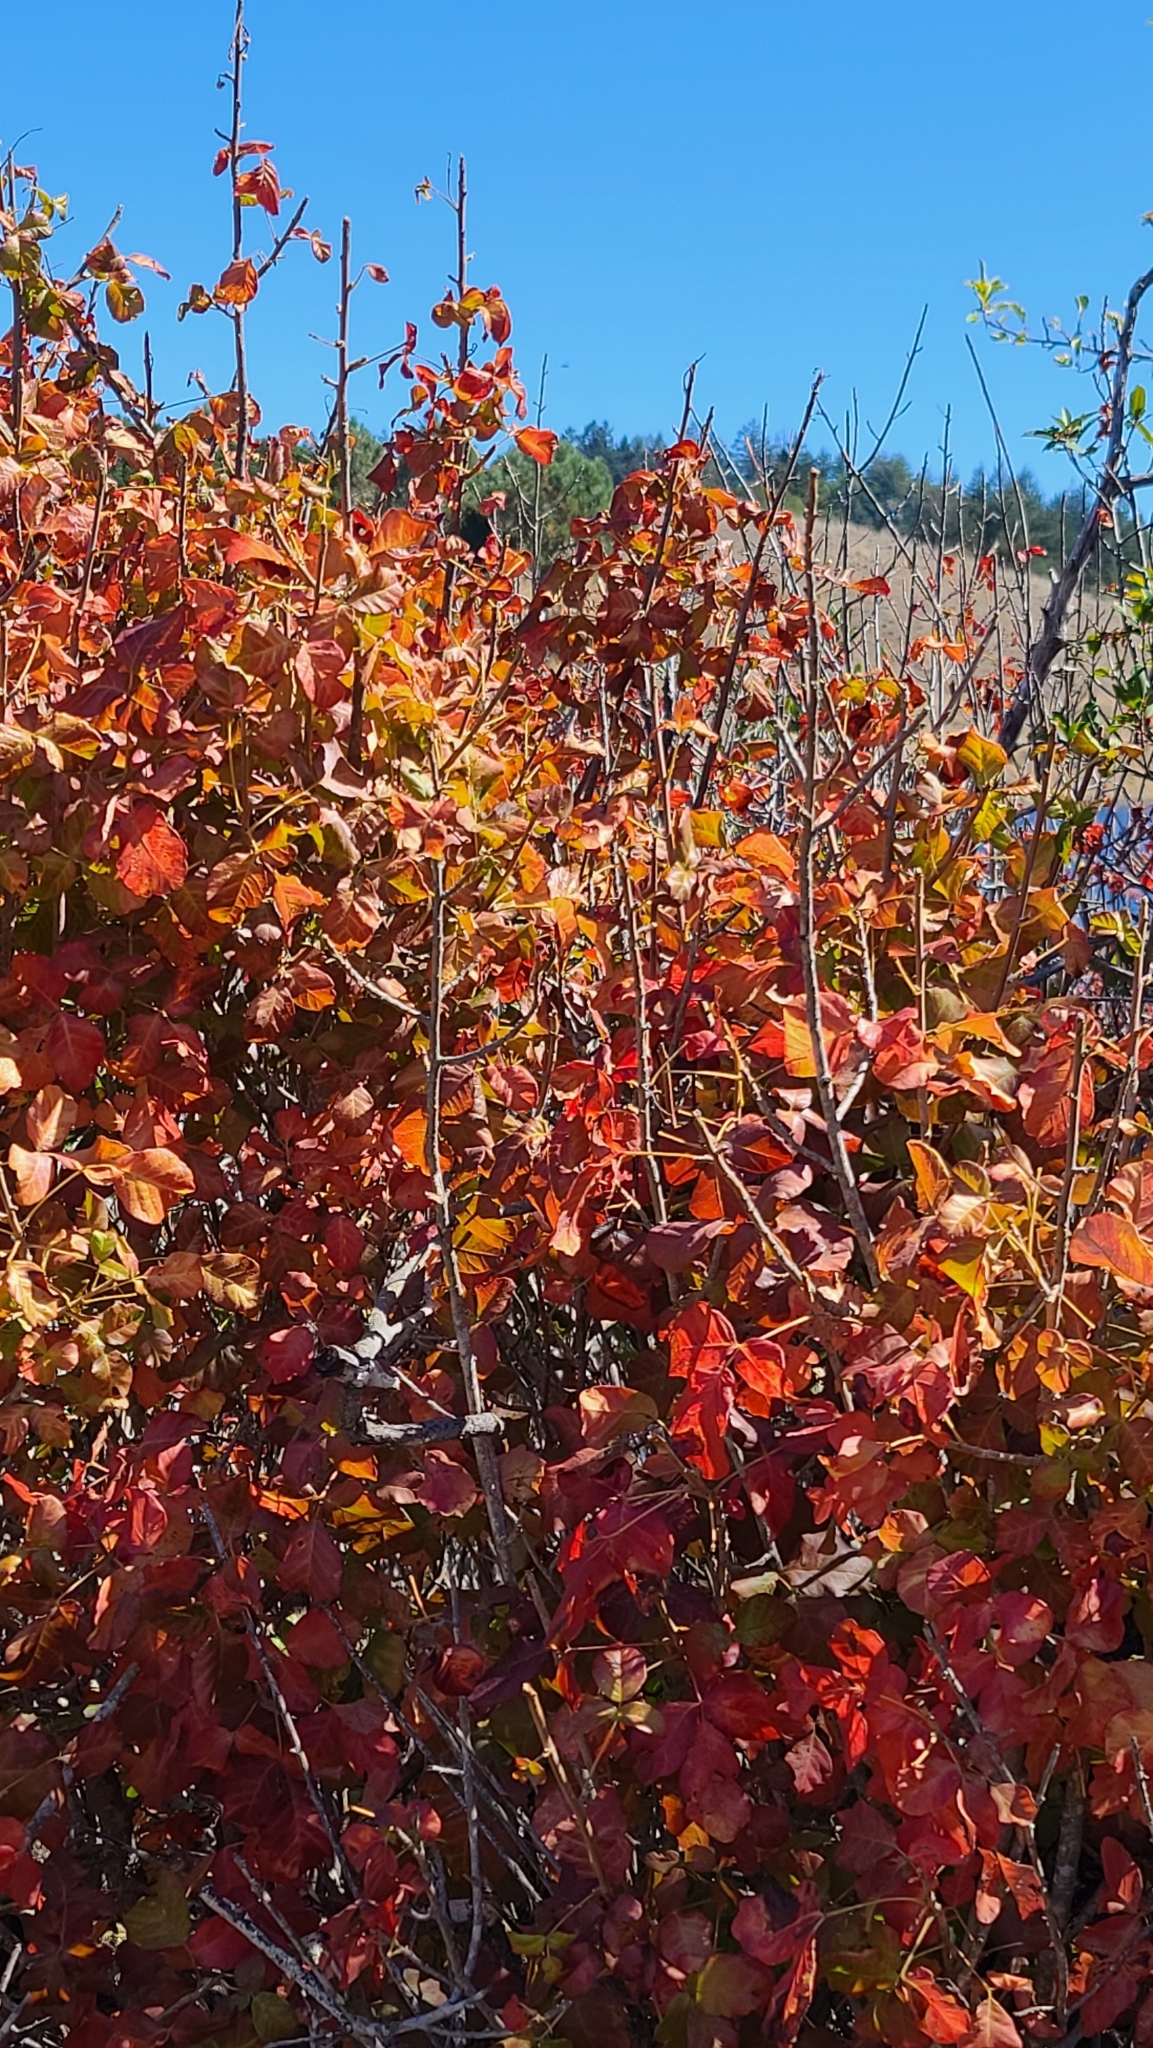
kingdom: Plantae
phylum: Tracheophyta
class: Magnoliopsida
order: Sapindales
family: Anacardiaceae
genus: Toxicodendron
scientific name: Toxicodendron diversilobum
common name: Pacific poison-oak
